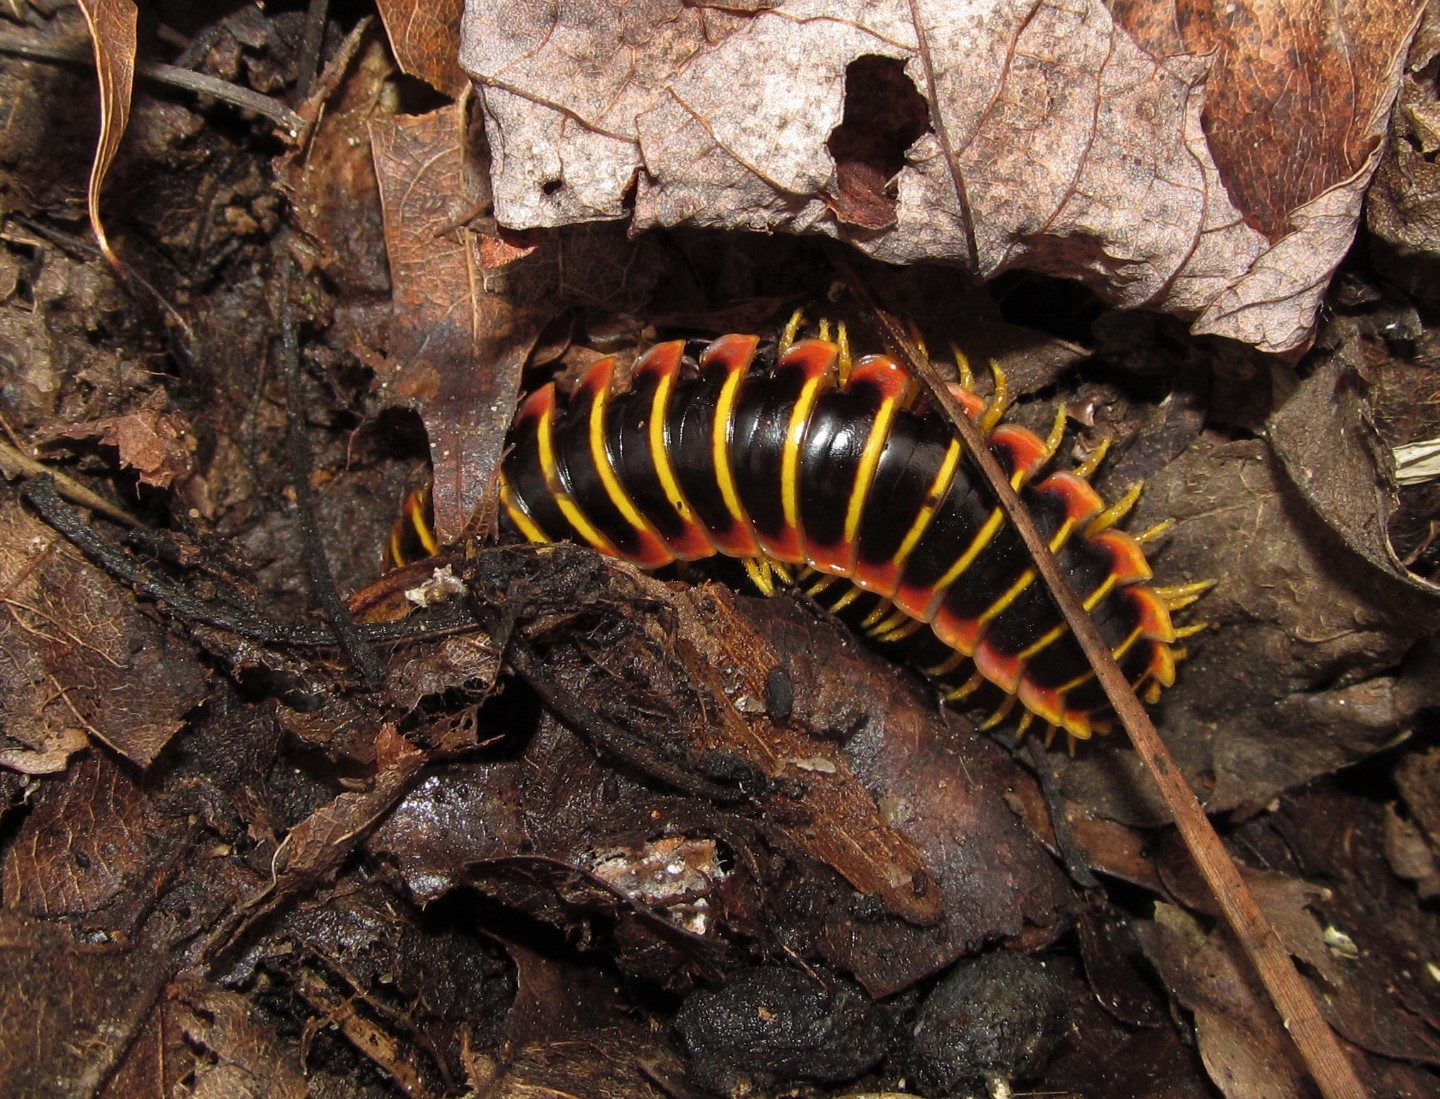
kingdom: Animalia
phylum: Arthropoda
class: Diplopoda
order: Polydesmida
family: Xystodesmidae
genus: Apheloria
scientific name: Apheloria virginiensis
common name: Black-and-gold flat millipede
